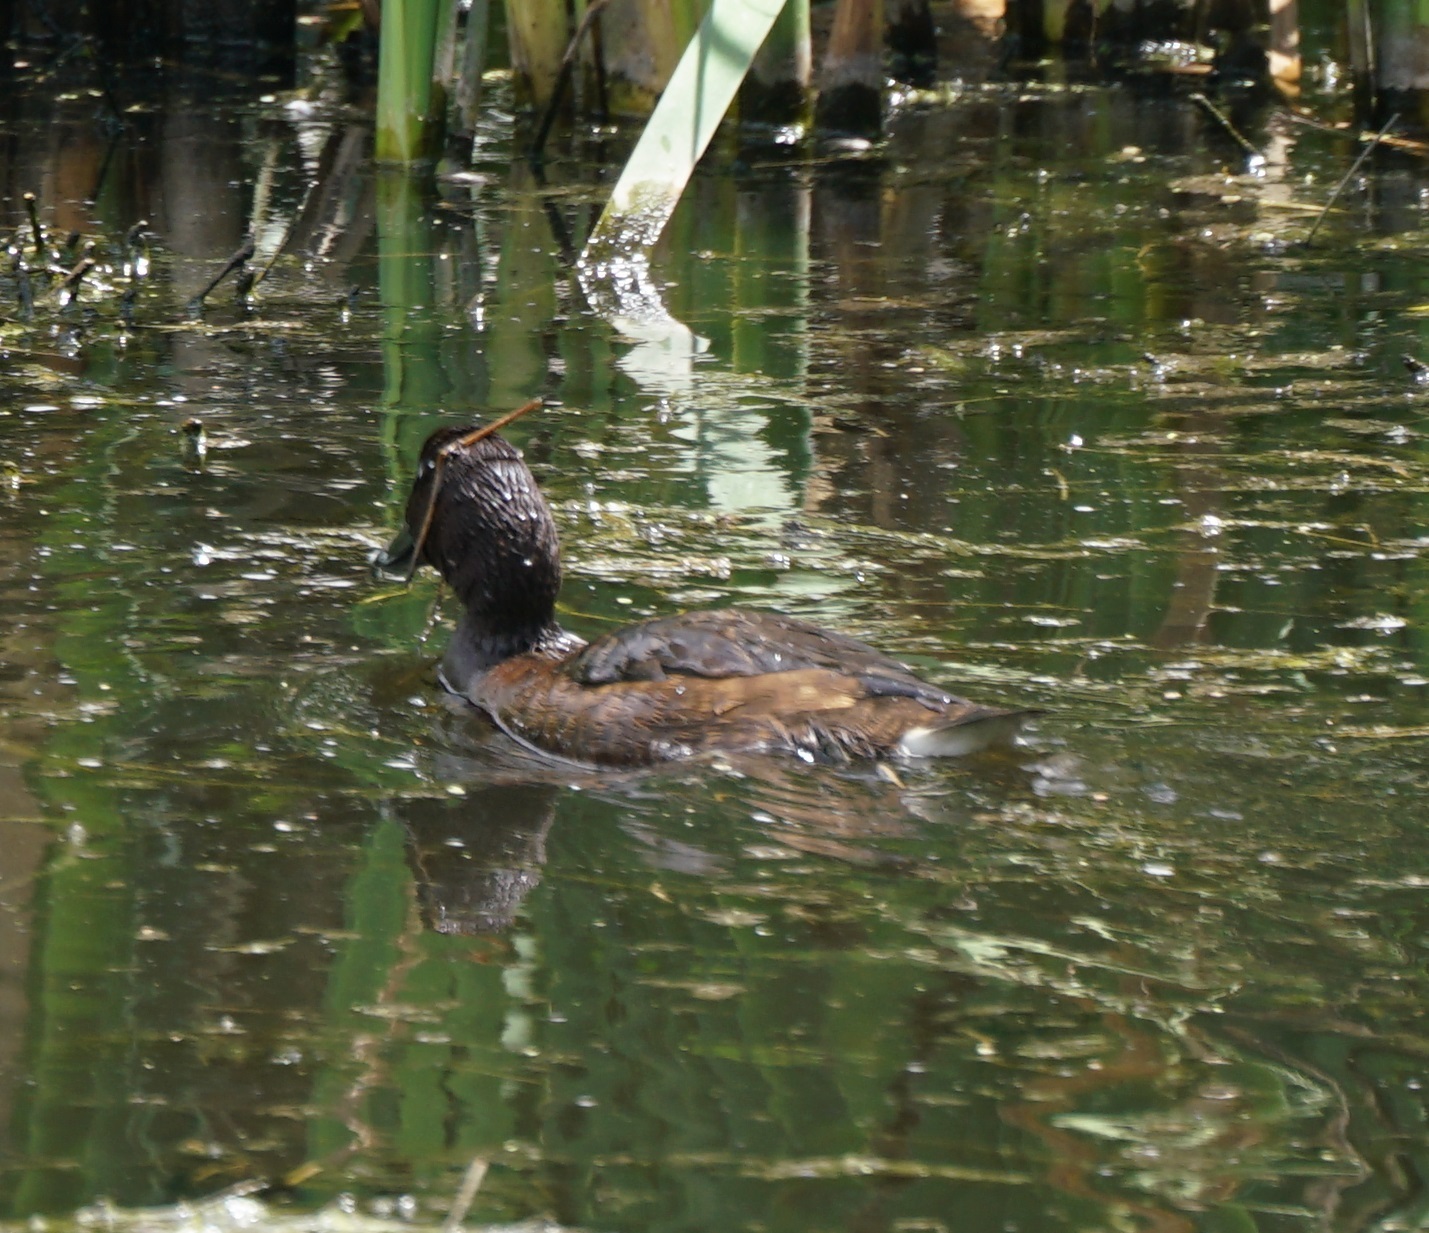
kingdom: Animalia
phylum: Chordata
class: Aves
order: Anseriformes
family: Anatidae
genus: Aythya
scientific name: Aythya australis
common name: Hardhead
